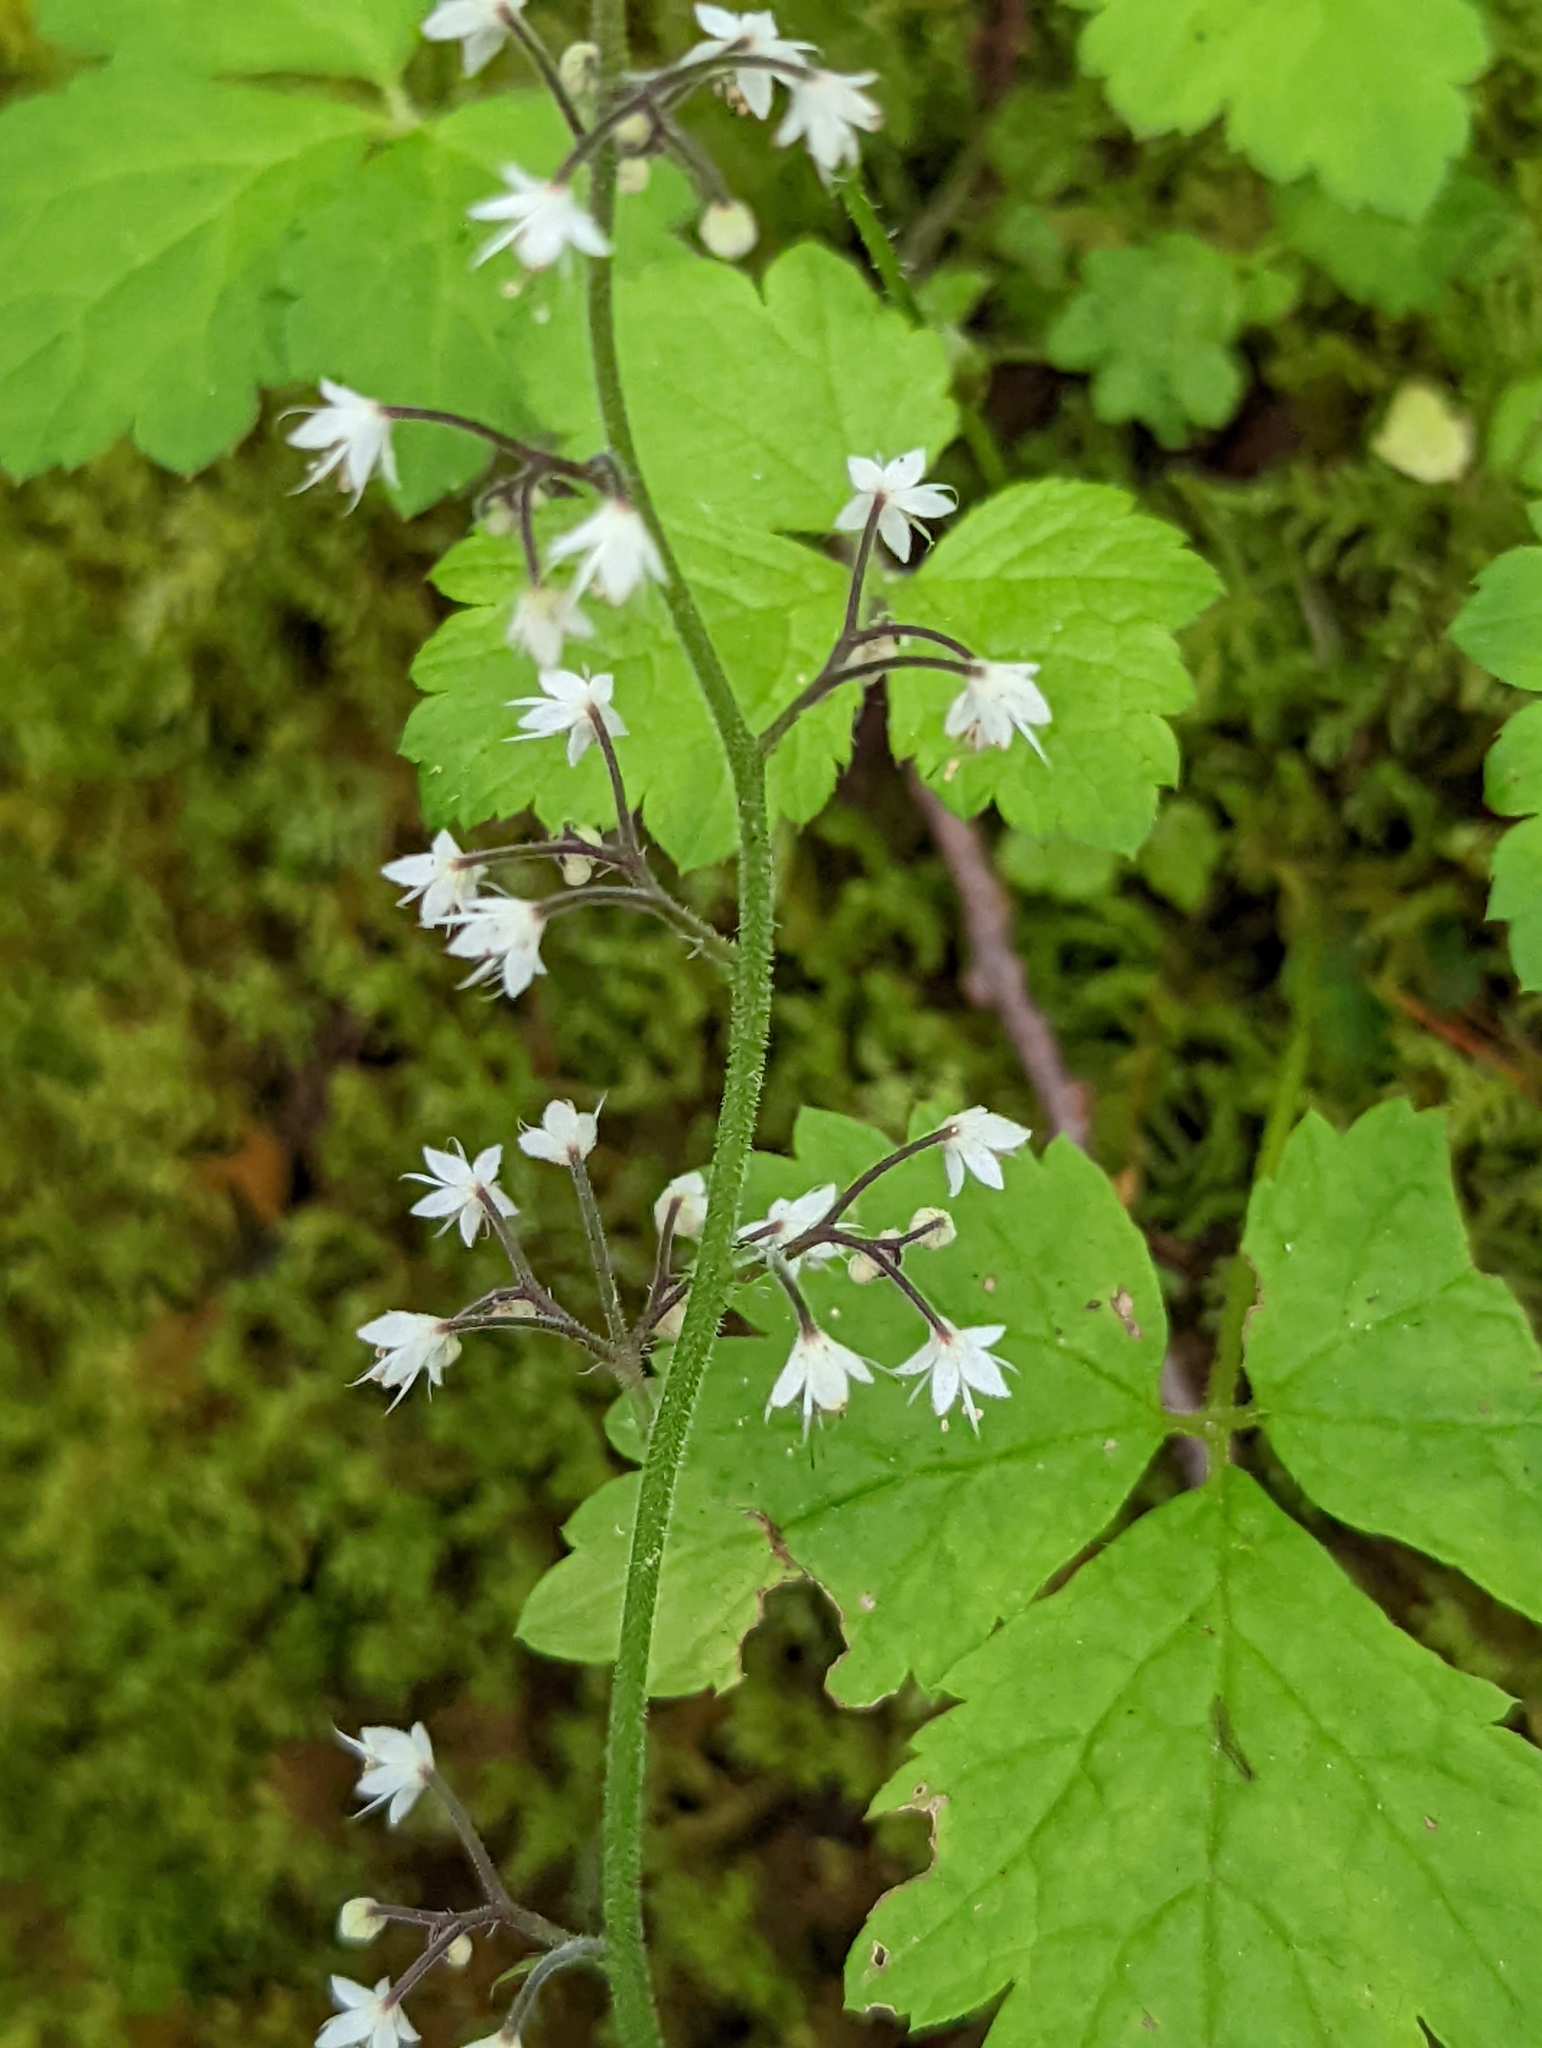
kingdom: Plantae
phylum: Tracheophyta
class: Magnoliopsida
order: Saxifragales
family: Saxifragaceae
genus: Tiarella
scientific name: Tiarella trifoliata
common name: Sugar-scoop
